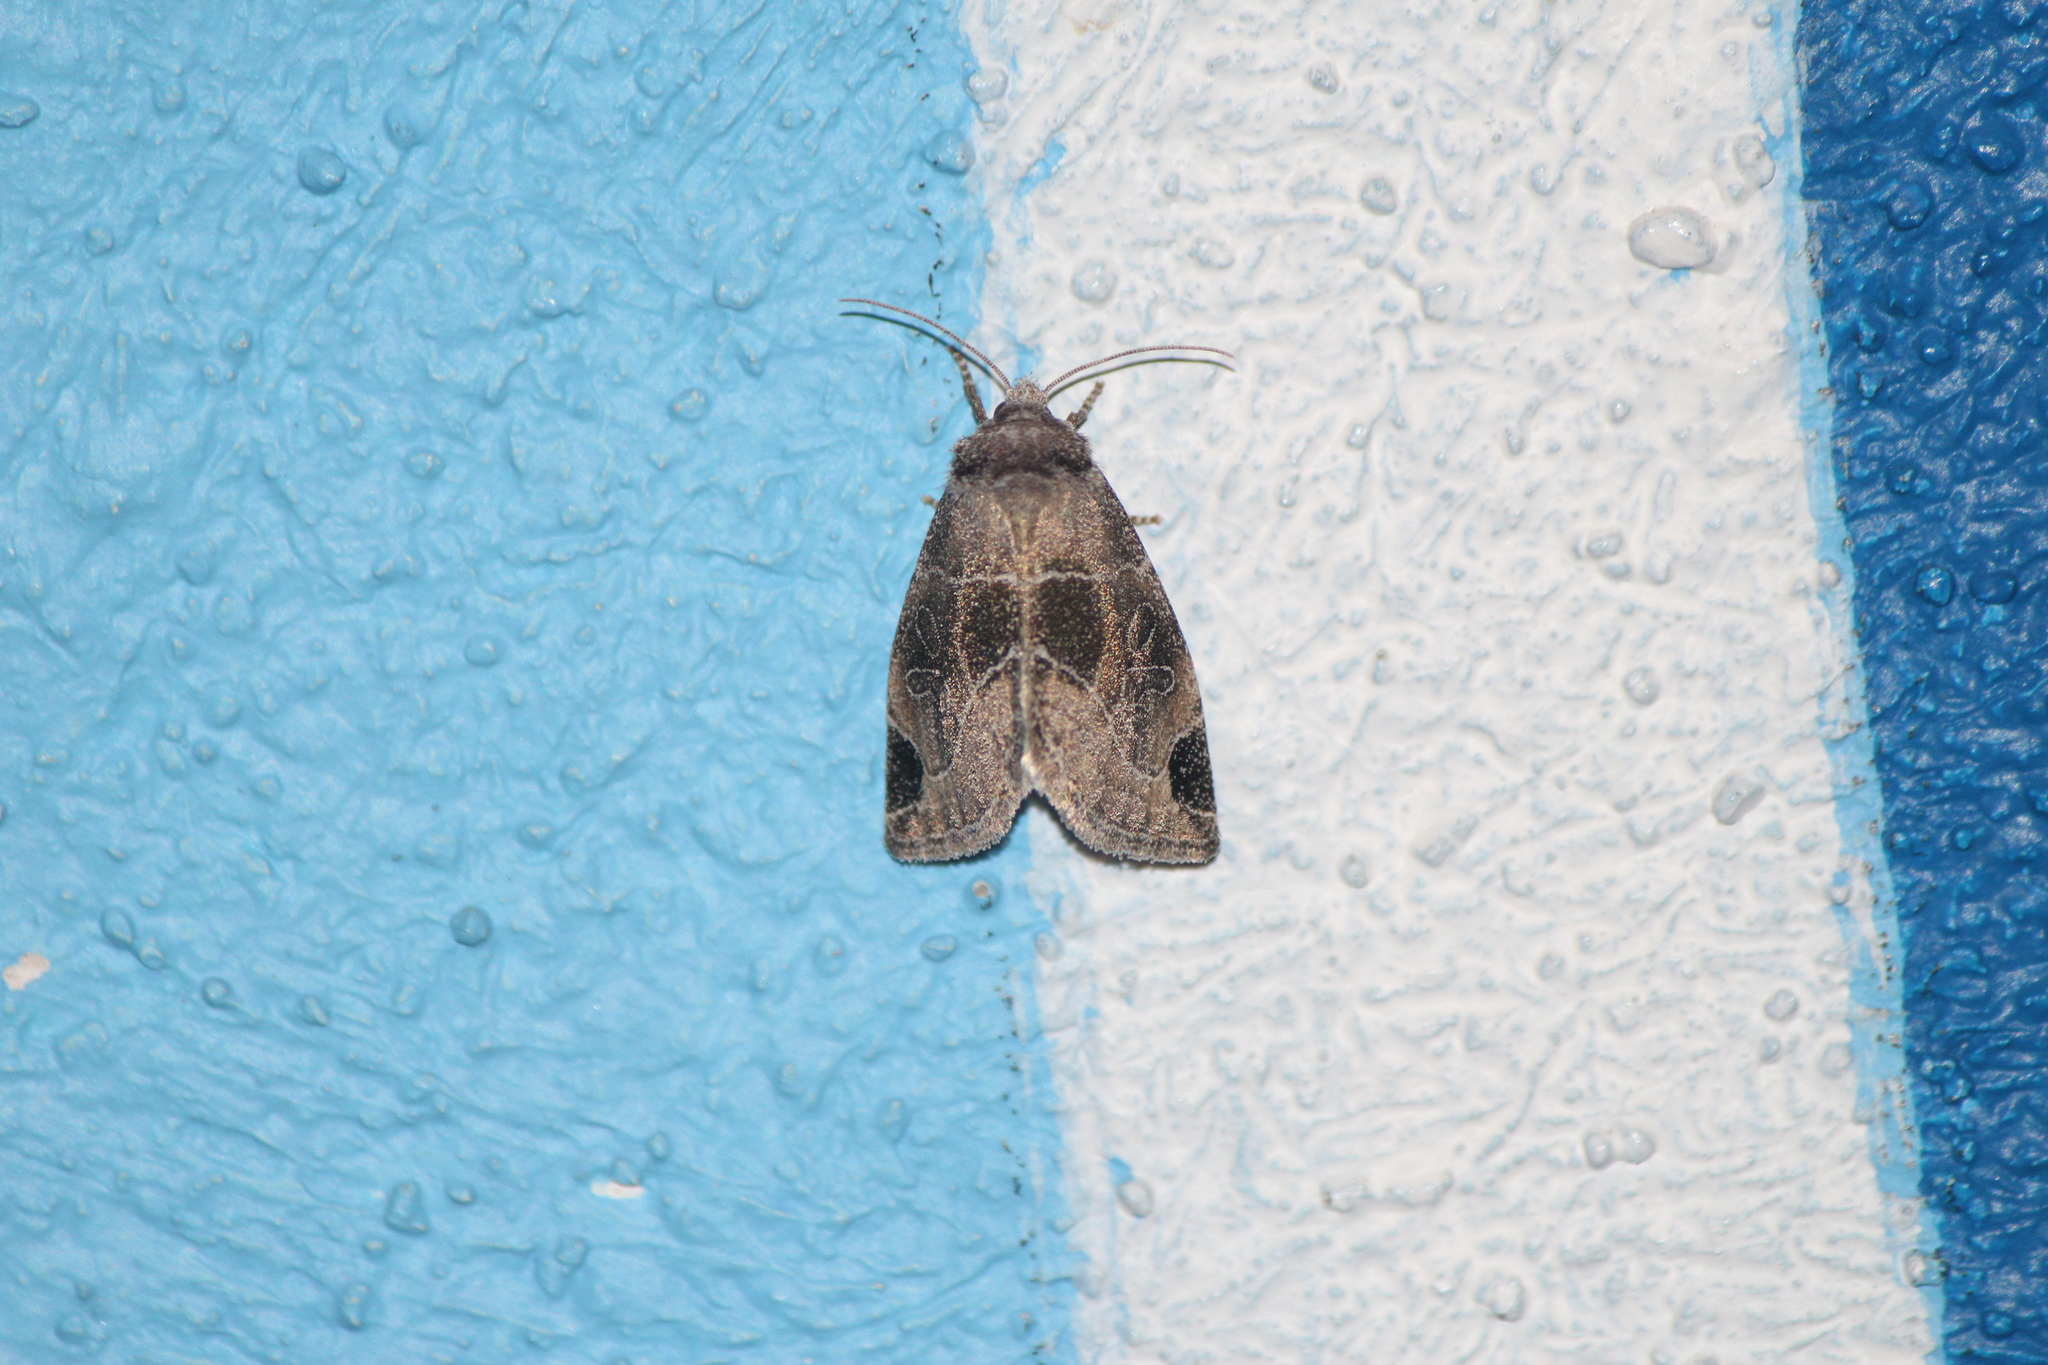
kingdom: Animalia
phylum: Arthropoda
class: Insecta
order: Lepidoptera
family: Noctuidae
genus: Plagiomimicus
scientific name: Plagiomimicus curiosum
